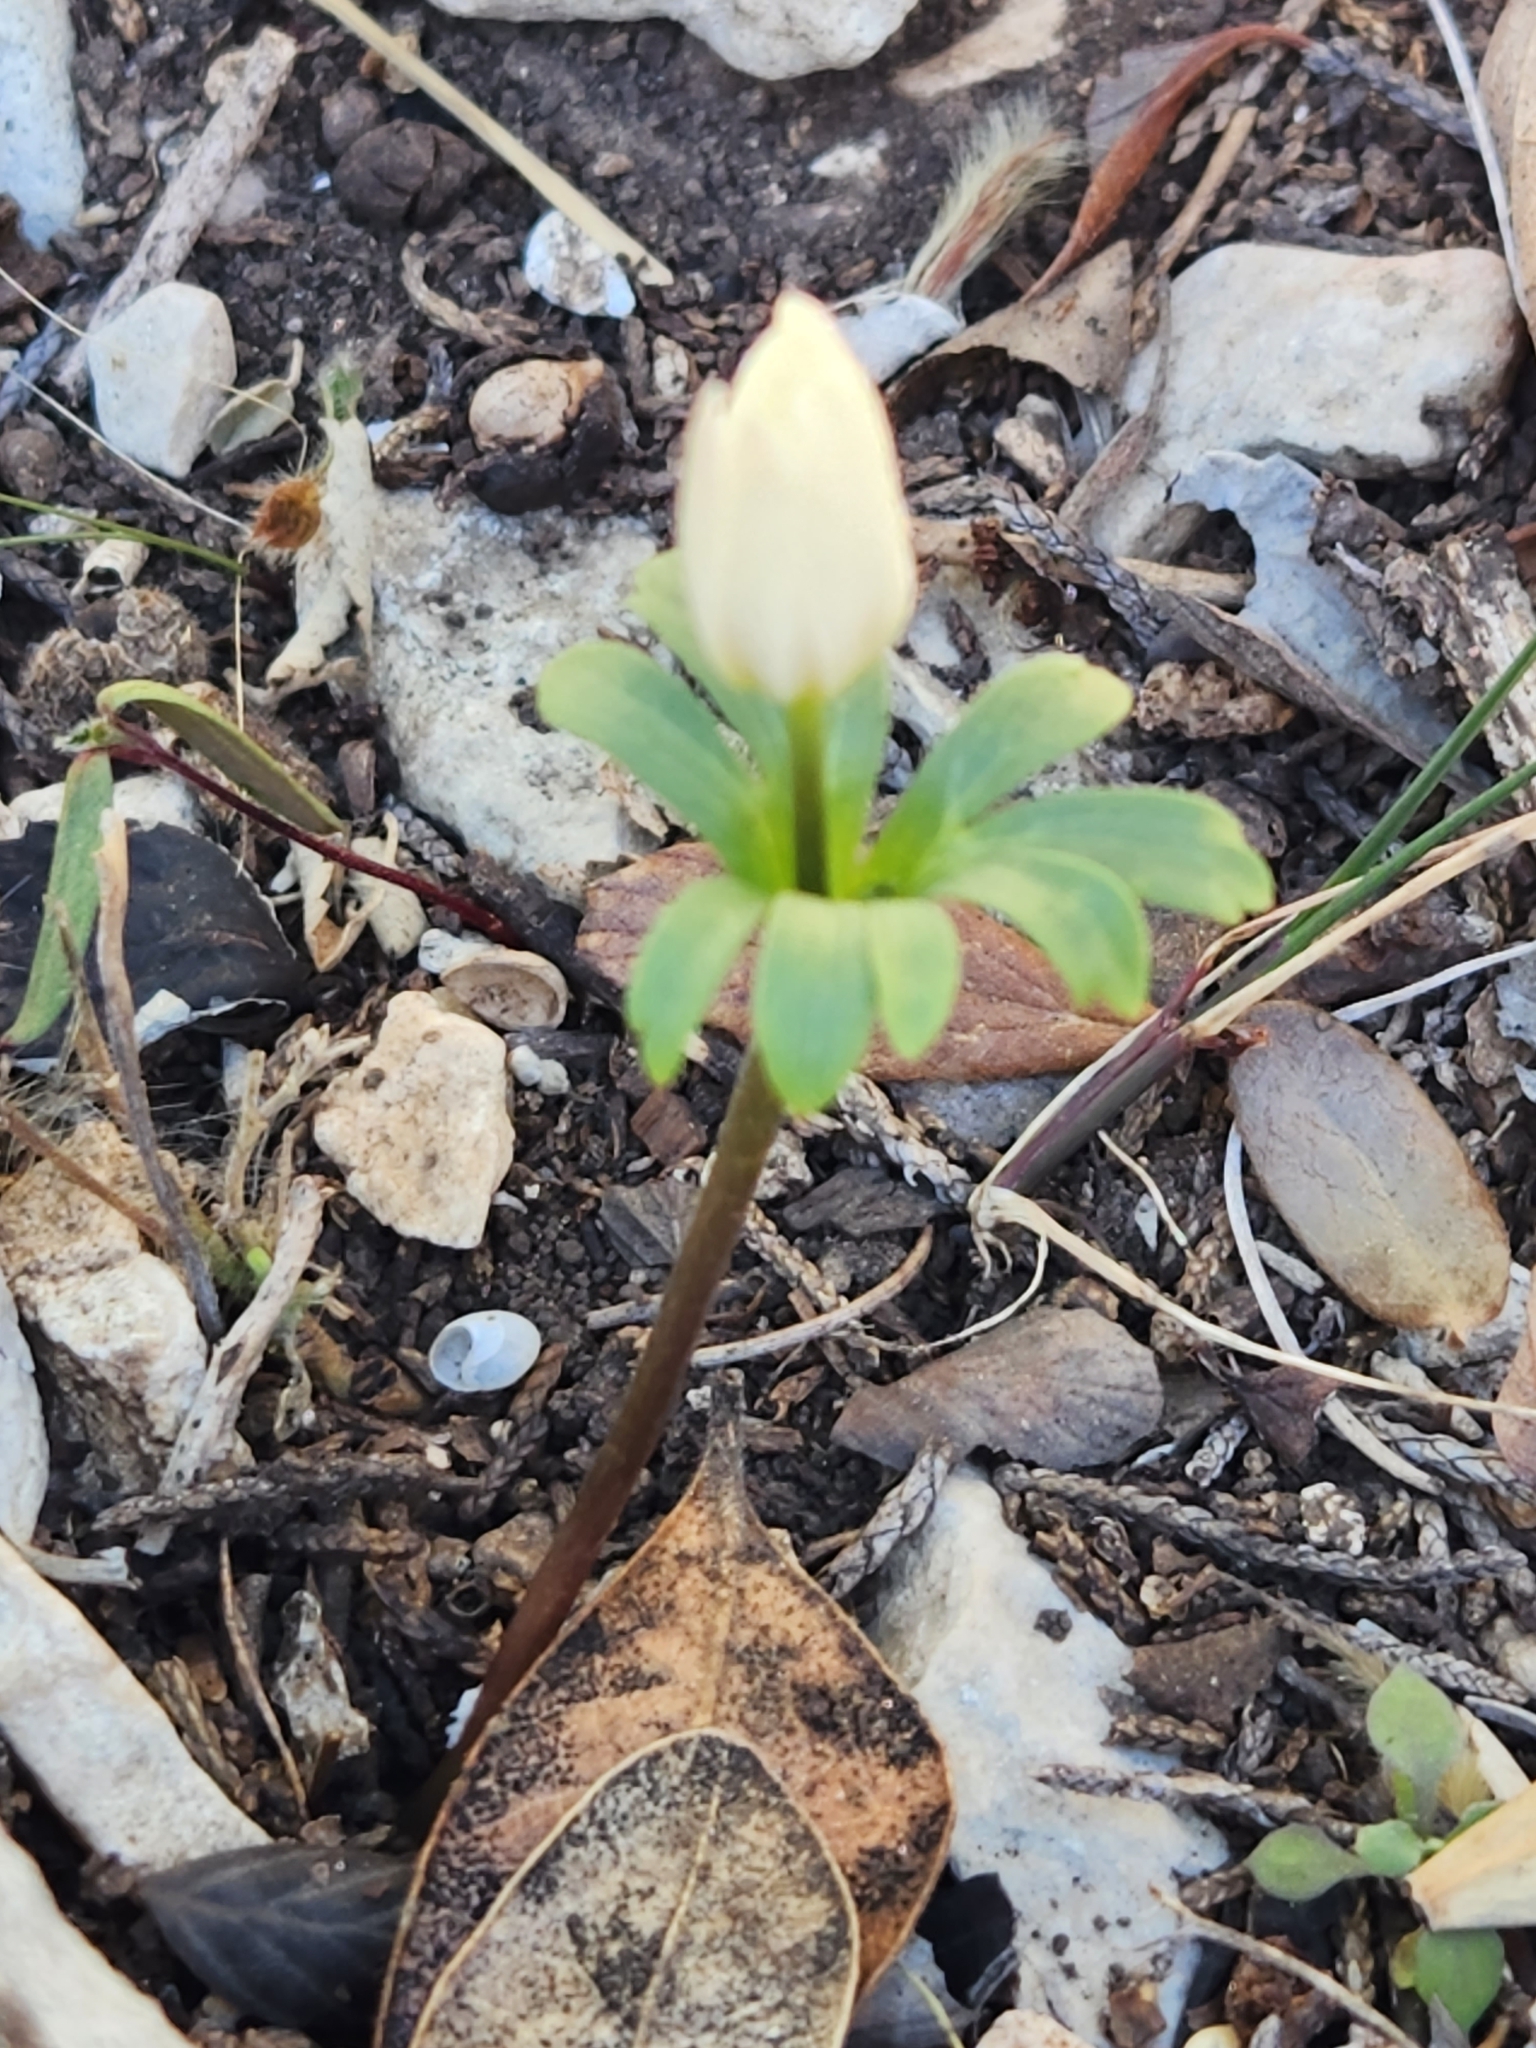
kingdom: Plantae
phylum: Tracheophyta
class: Magnoliopsida
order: Ranunculales
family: Ranunculaceae
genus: Anemone
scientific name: Anemone edwardsiana
